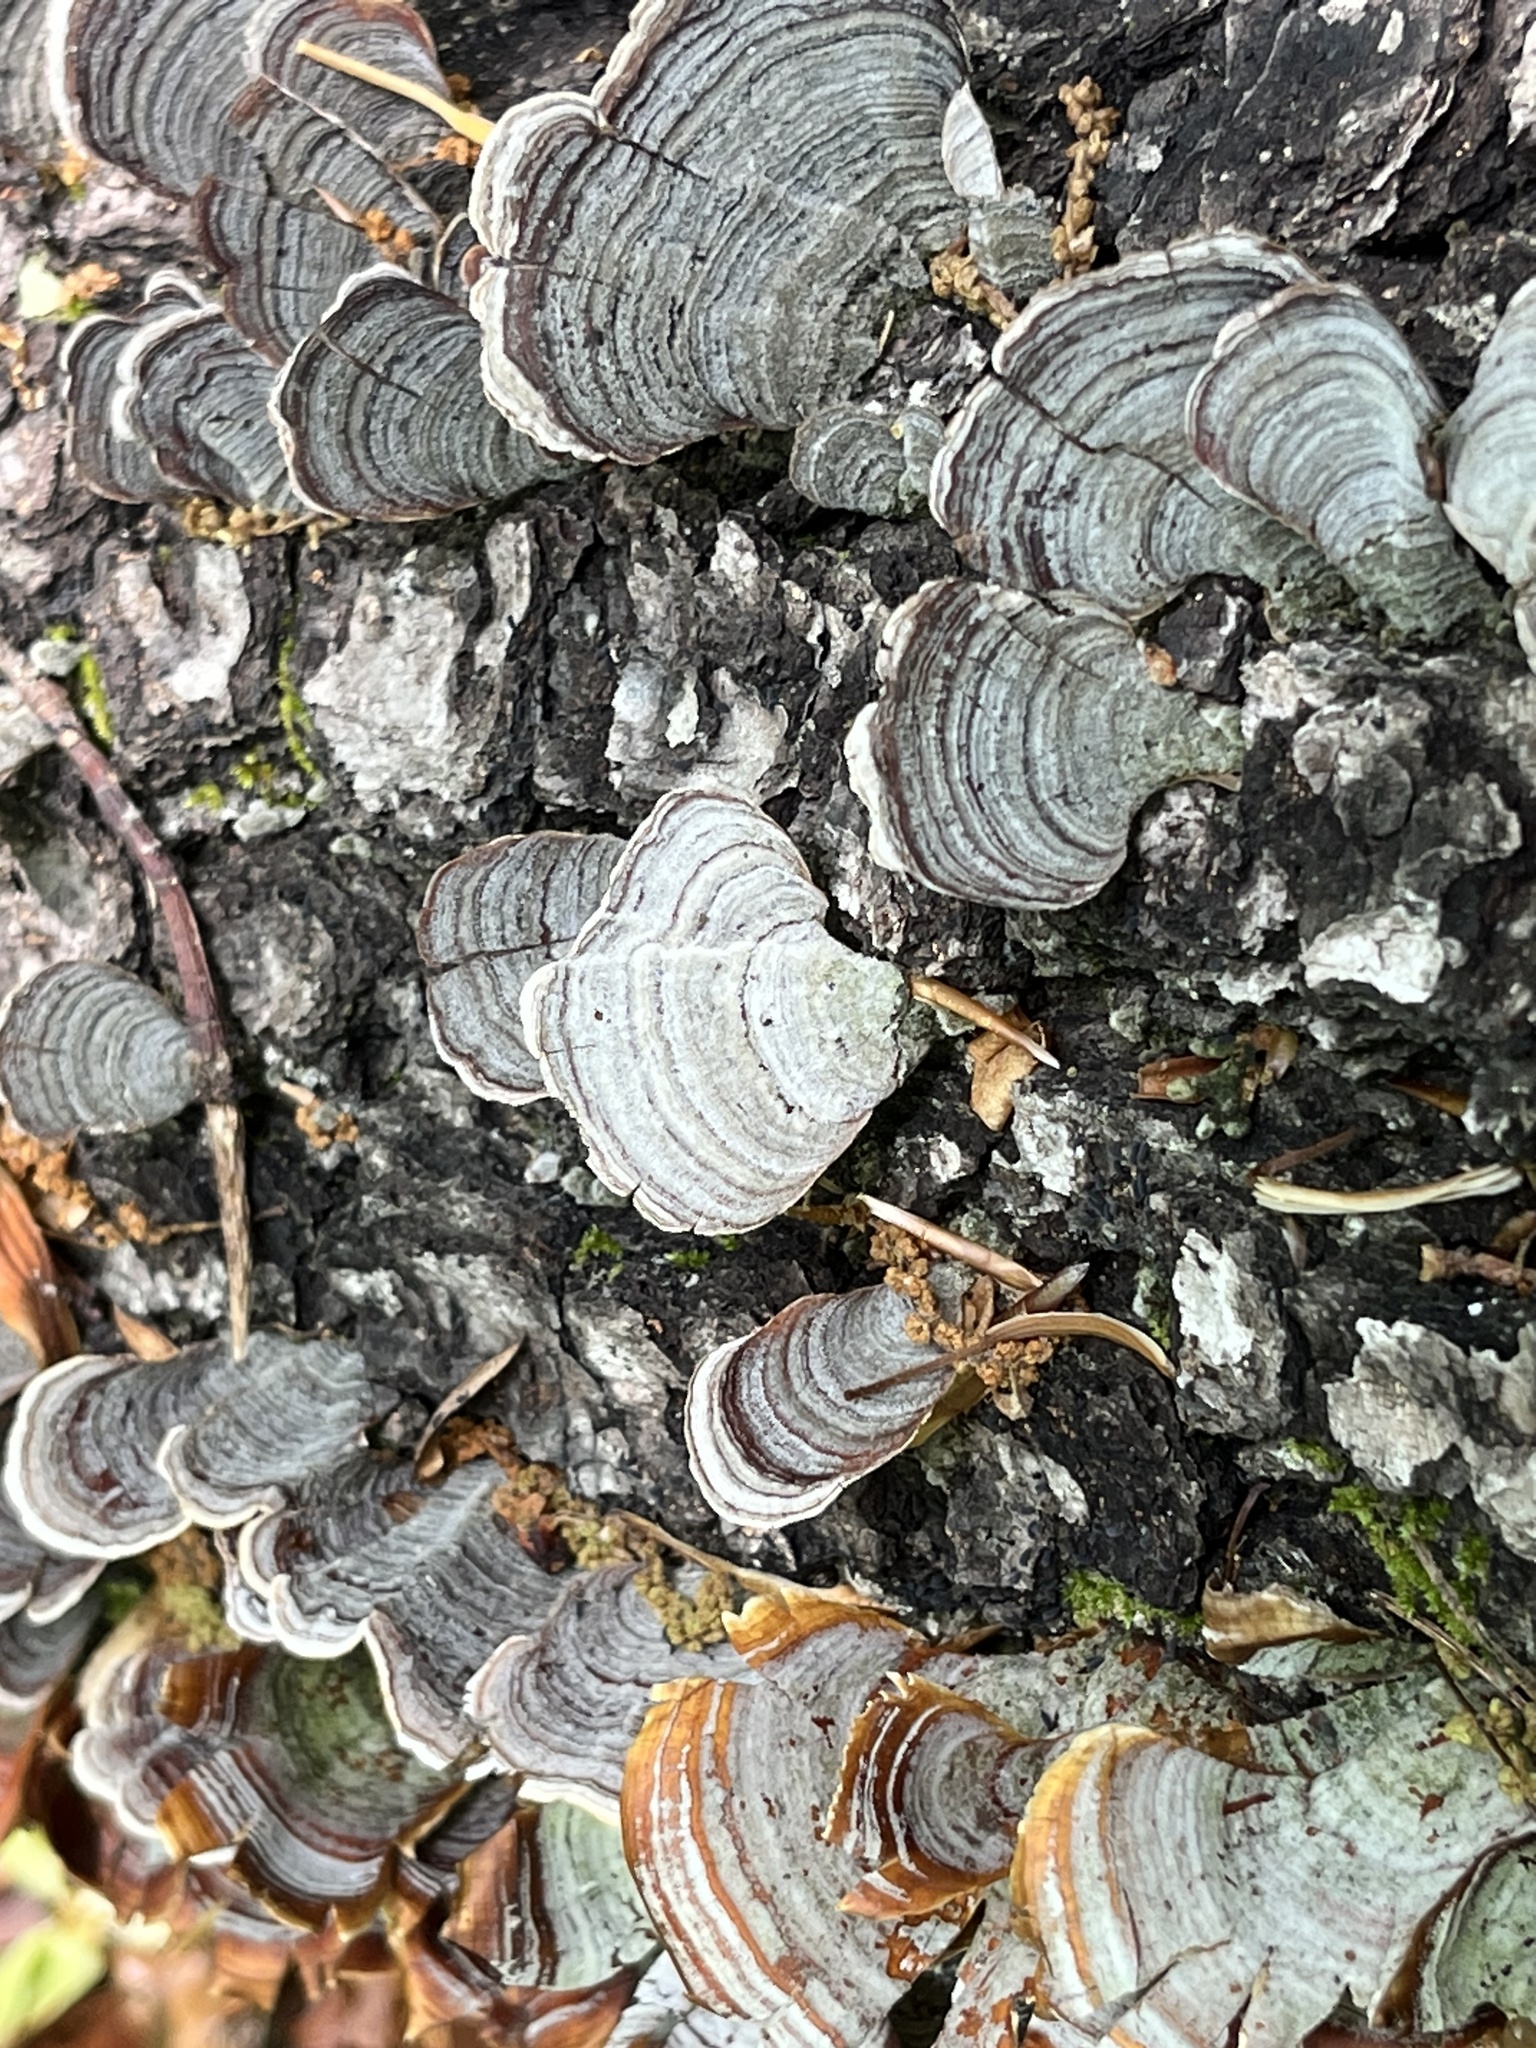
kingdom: Fungi
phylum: Basidiomycota
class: Agaricomycetes
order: Russulales
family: Stereaceae
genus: Stereum
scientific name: Stereum lobatum
